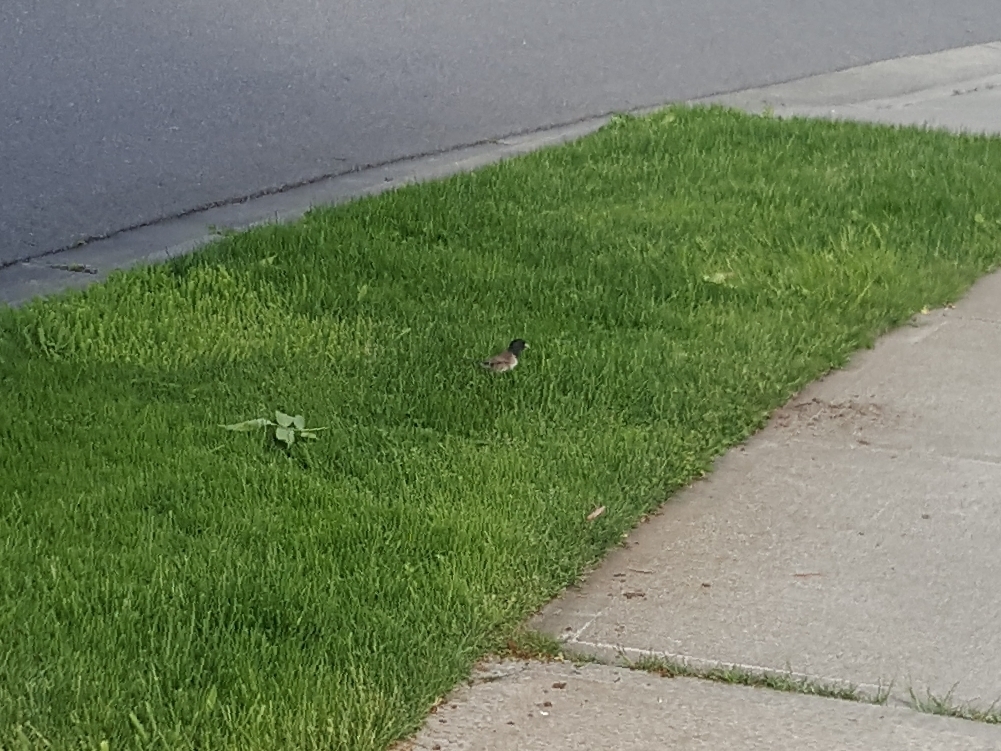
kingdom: Animalia
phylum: Chordata
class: Aves
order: Passeriformes
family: Passerellidae
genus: Junco
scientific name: Junco hyemalis
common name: Dark-eyed junco
